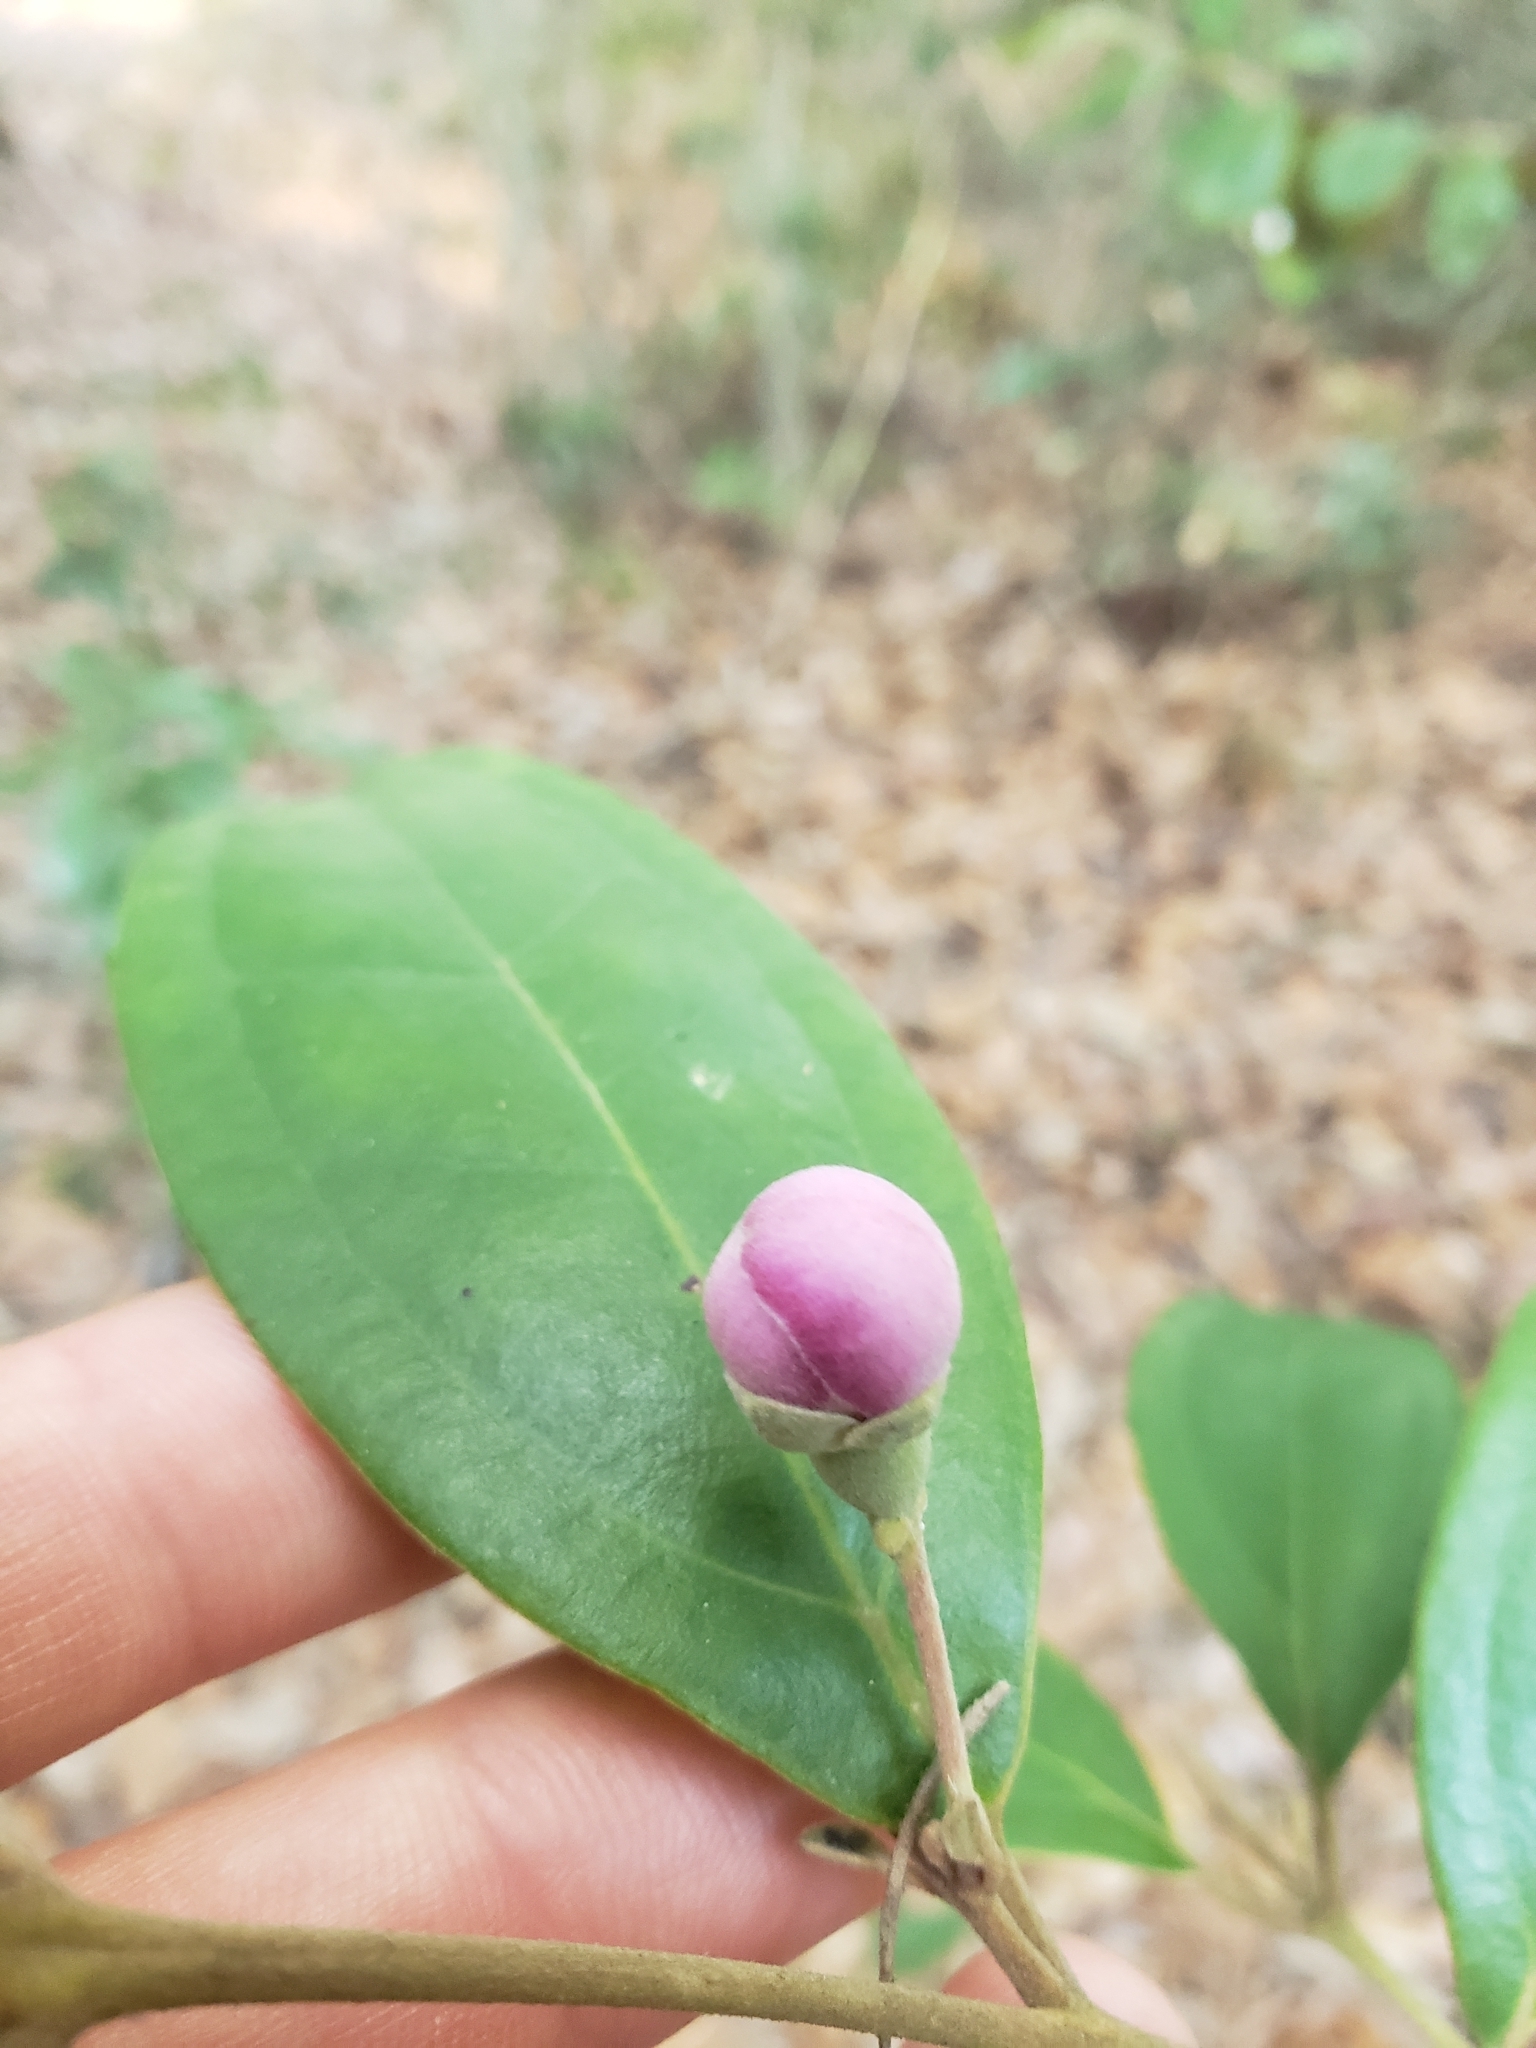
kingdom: Plantae
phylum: Tracheophyta
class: Magnoliopsida
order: Myrtales
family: Myrtaceae
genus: Rhodomyrtus
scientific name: Rhodomyrtus tomentosa
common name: Rose myrtle
